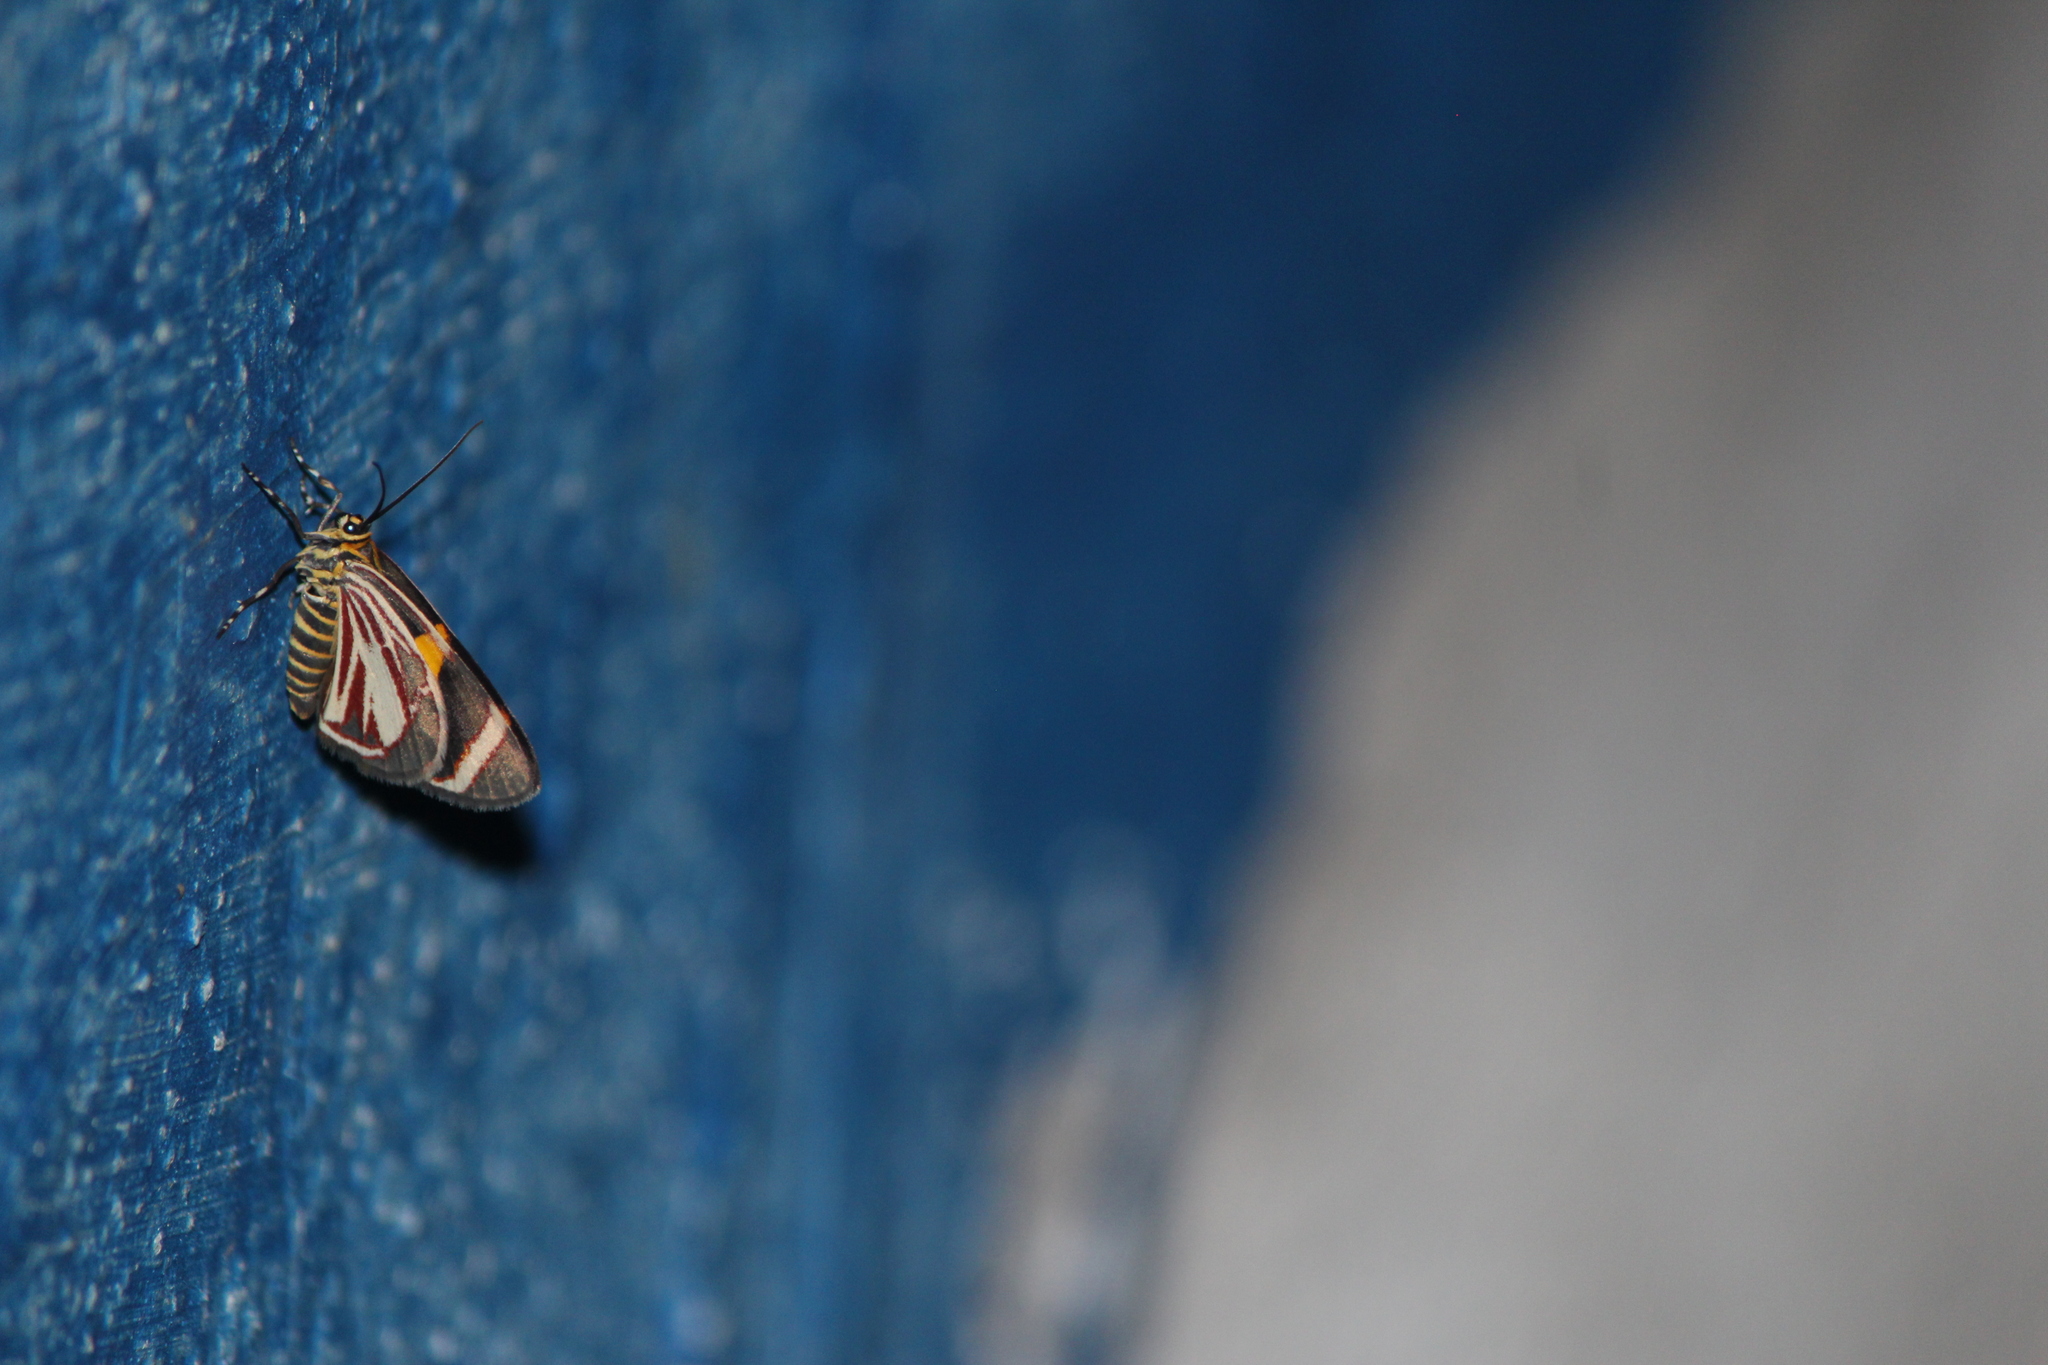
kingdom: Animalia
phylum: Arthropoda
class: Insecta
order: Lepidoptera
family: Geometridae
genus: Eutrepsia
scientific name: Eutrepsia haemataria
